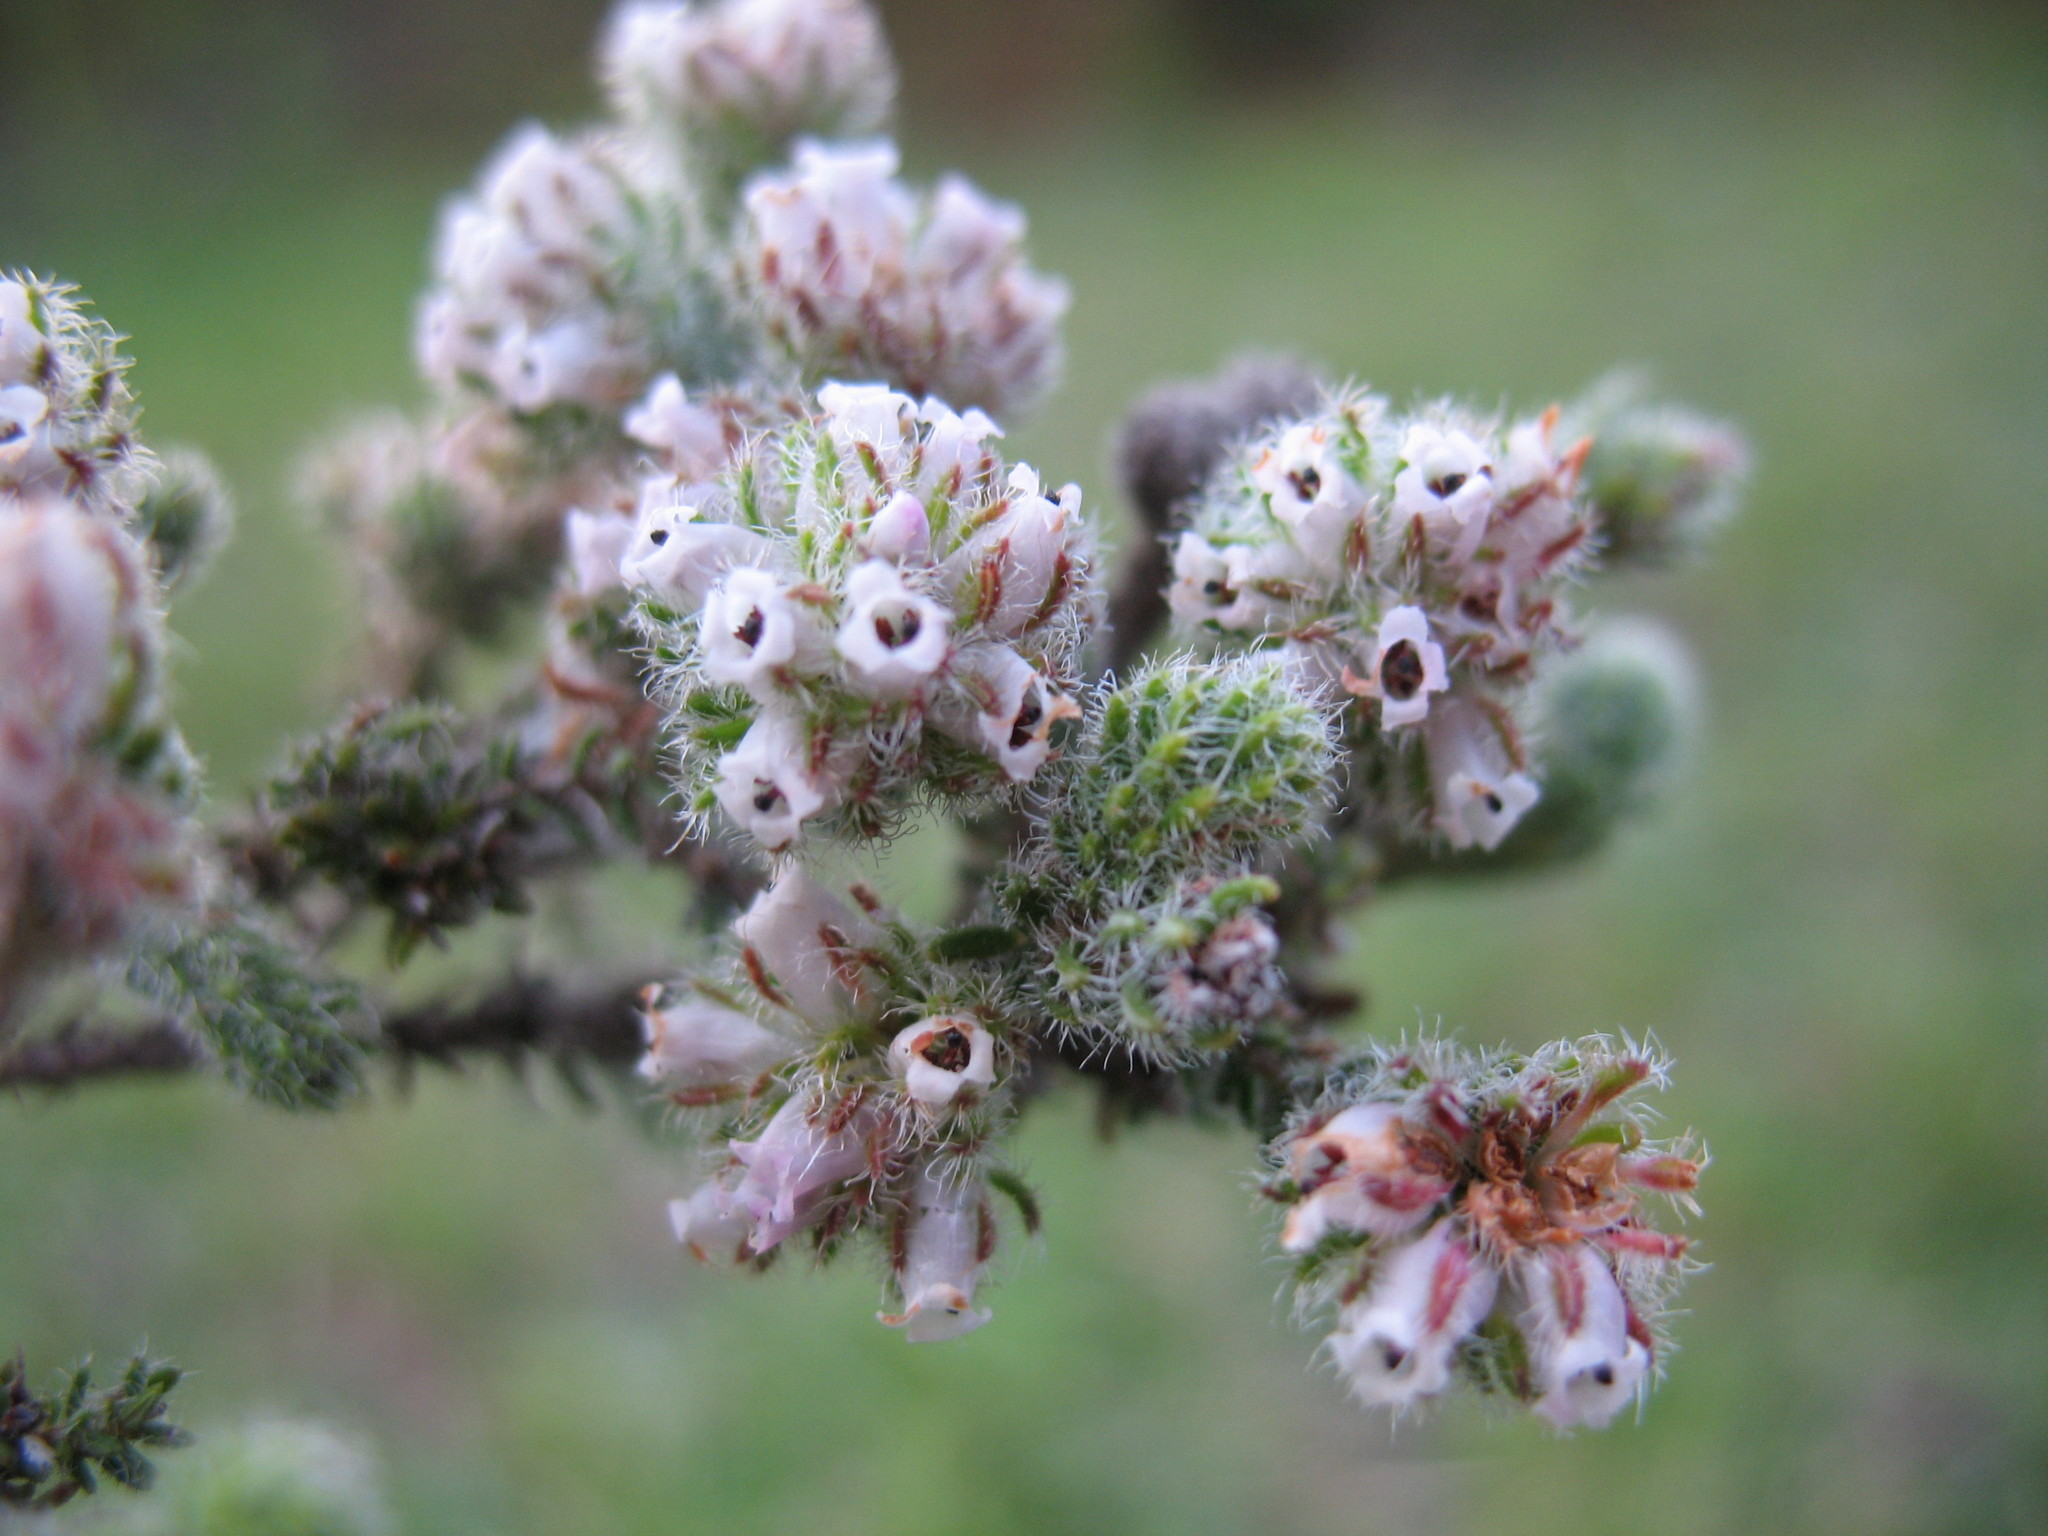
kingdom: Plantae
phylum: Tracheophyta
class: Magnoliopsida
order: Ericales
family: Ericaceae
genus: Erica
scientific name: Erica reenensis
